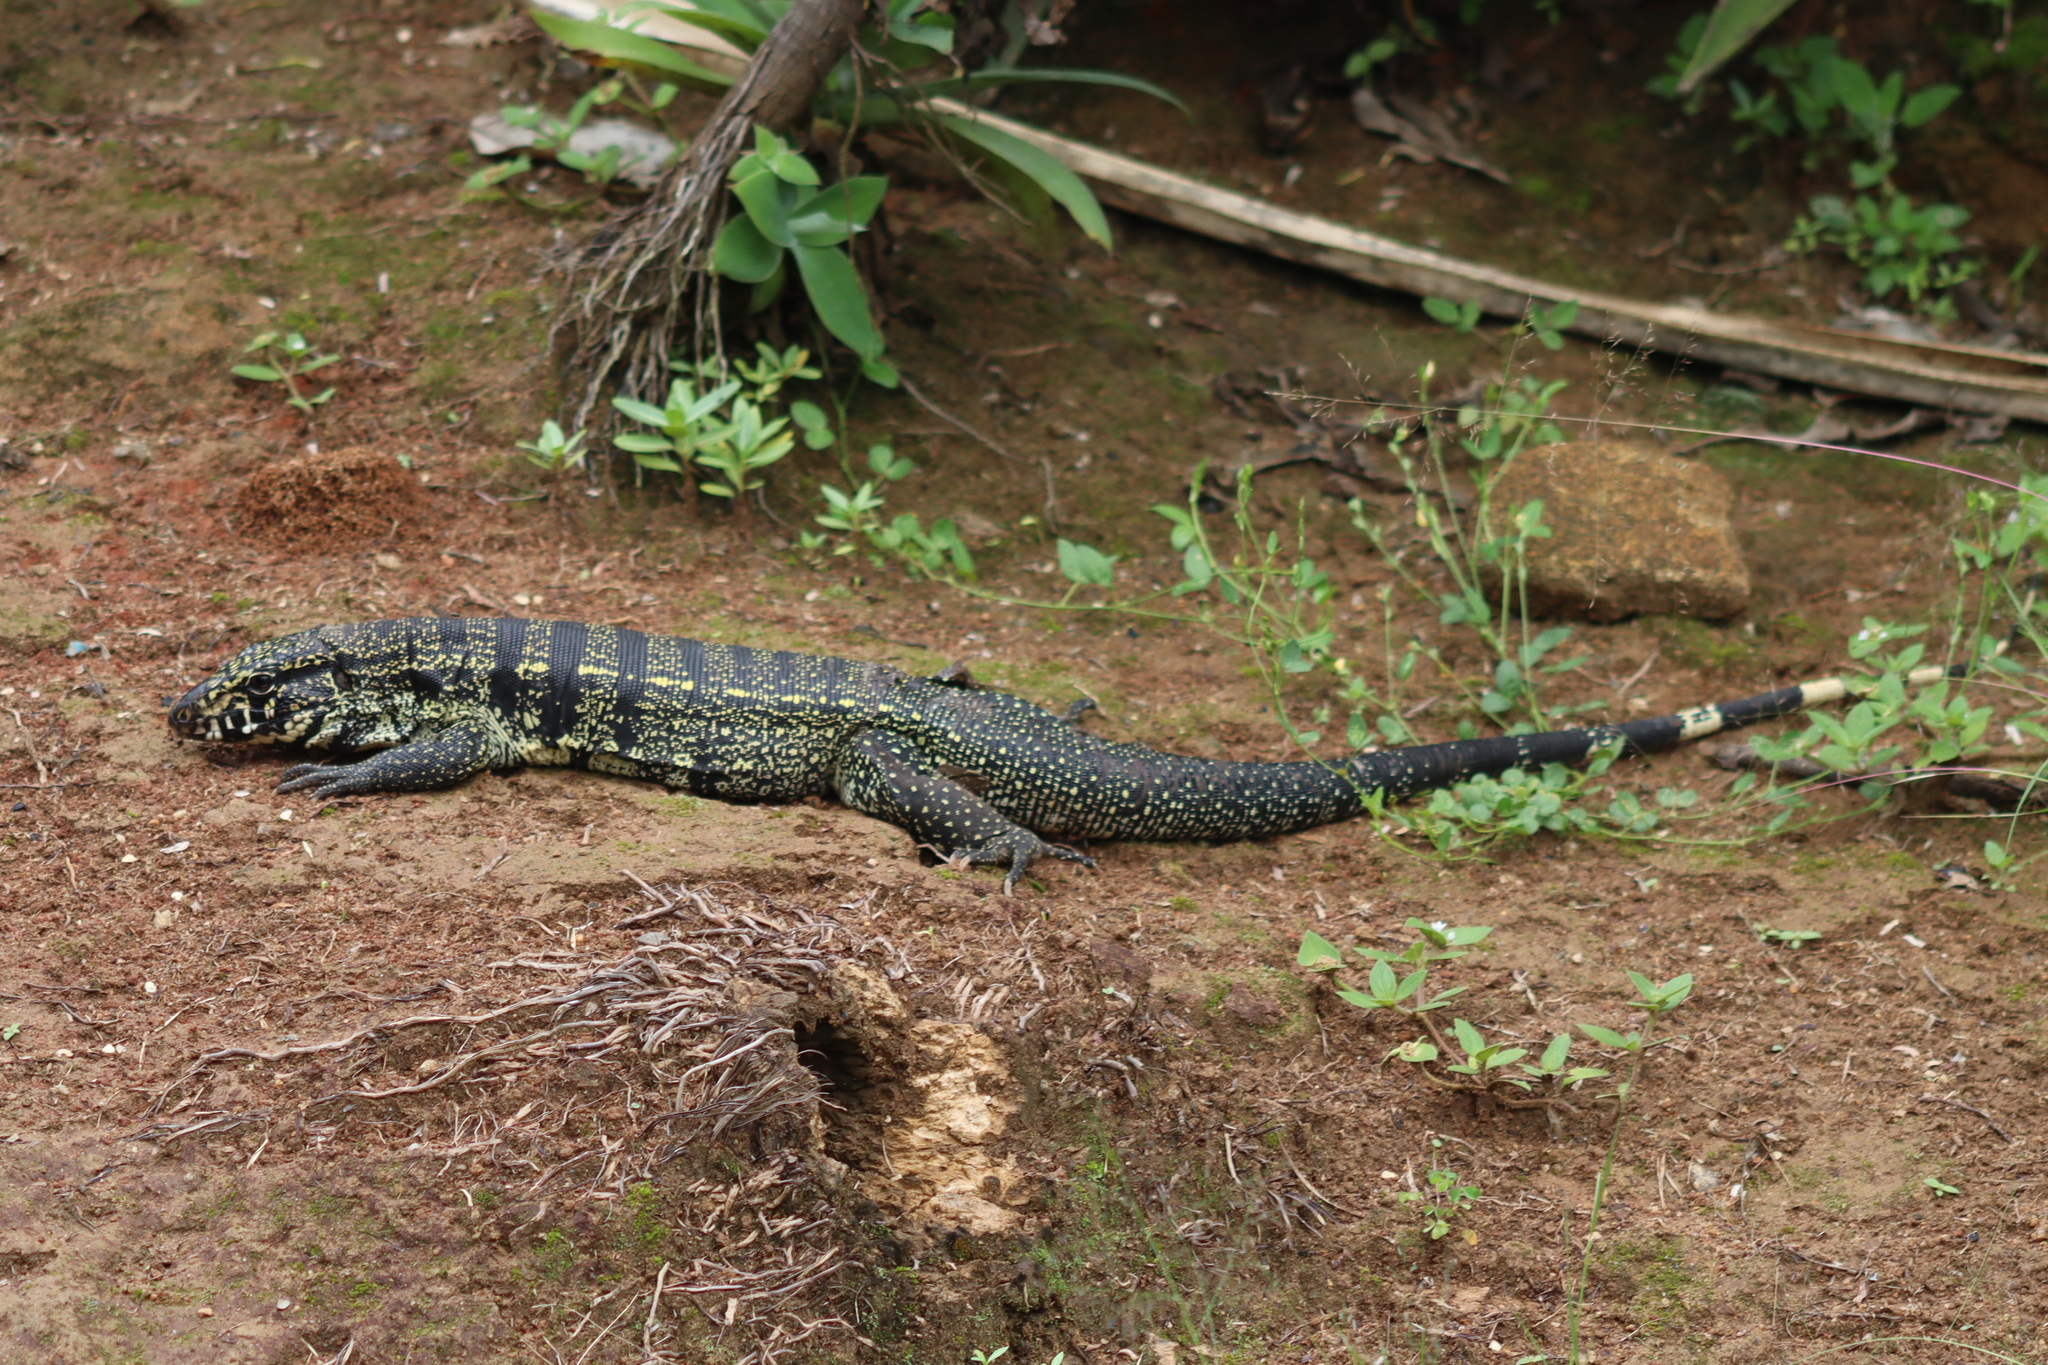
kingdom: Animalia
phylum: Chordata
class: Squamata
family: Teiidae
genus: Salvator
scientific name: Salvator merianae
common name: Argentine black and white tegu
